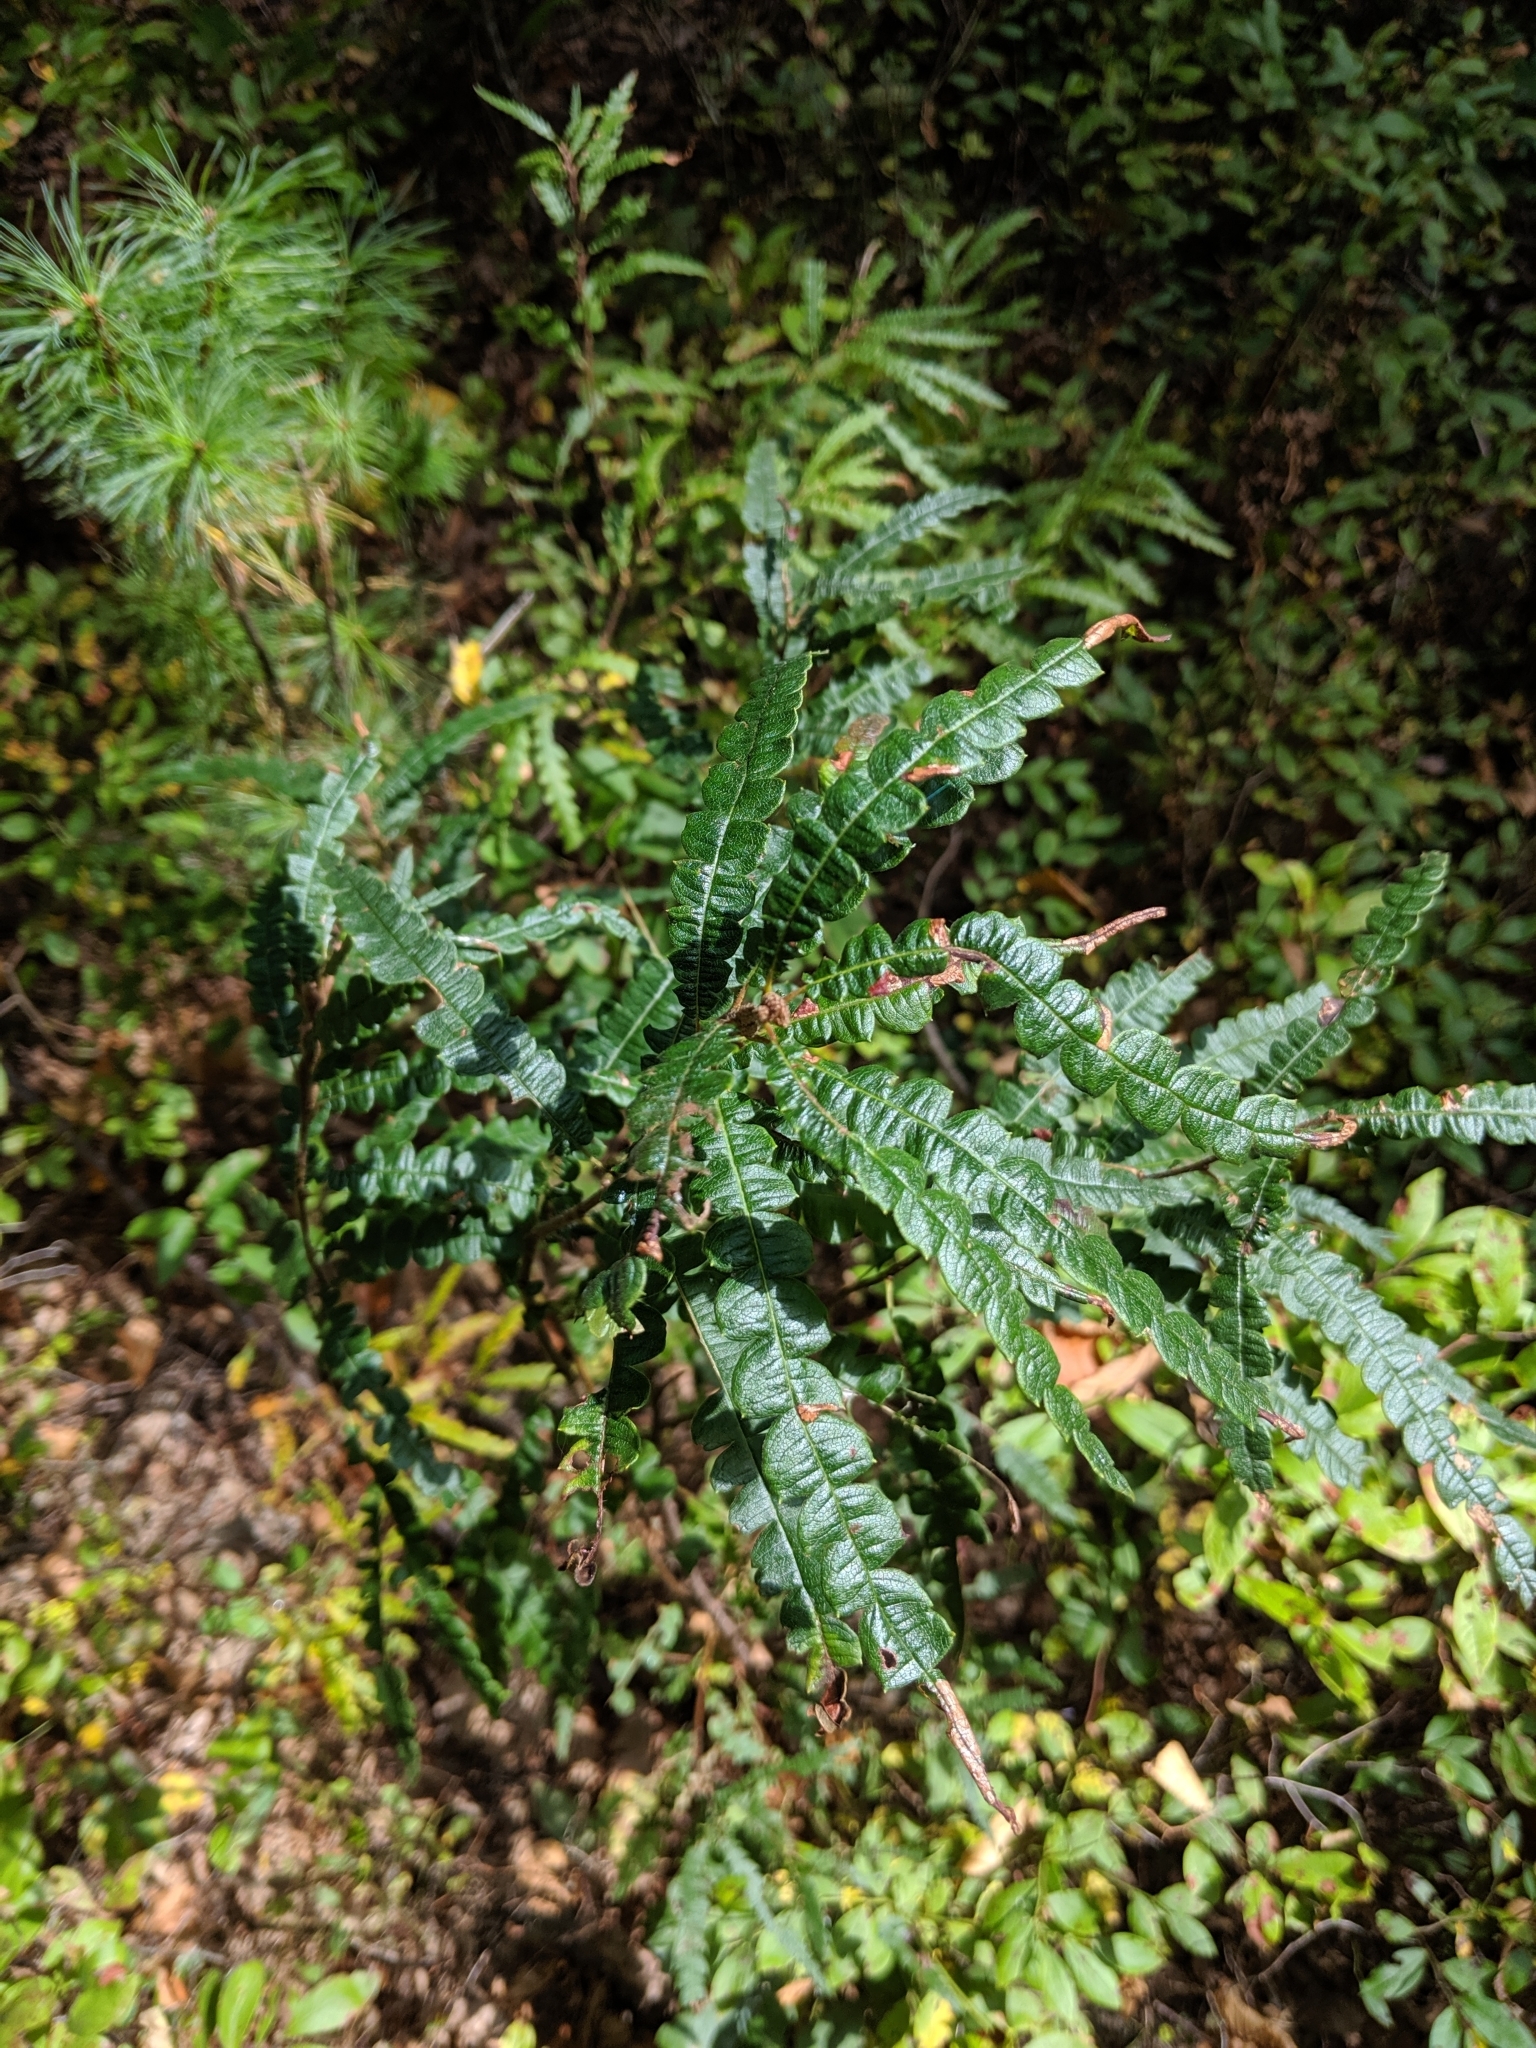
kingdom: Plantae
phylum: Tracheophyta
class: Magnoliopsida
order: Fagales
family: Myricaceae
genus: Comptonia
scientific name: Comptonia peregrina
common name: Sweet-fern
